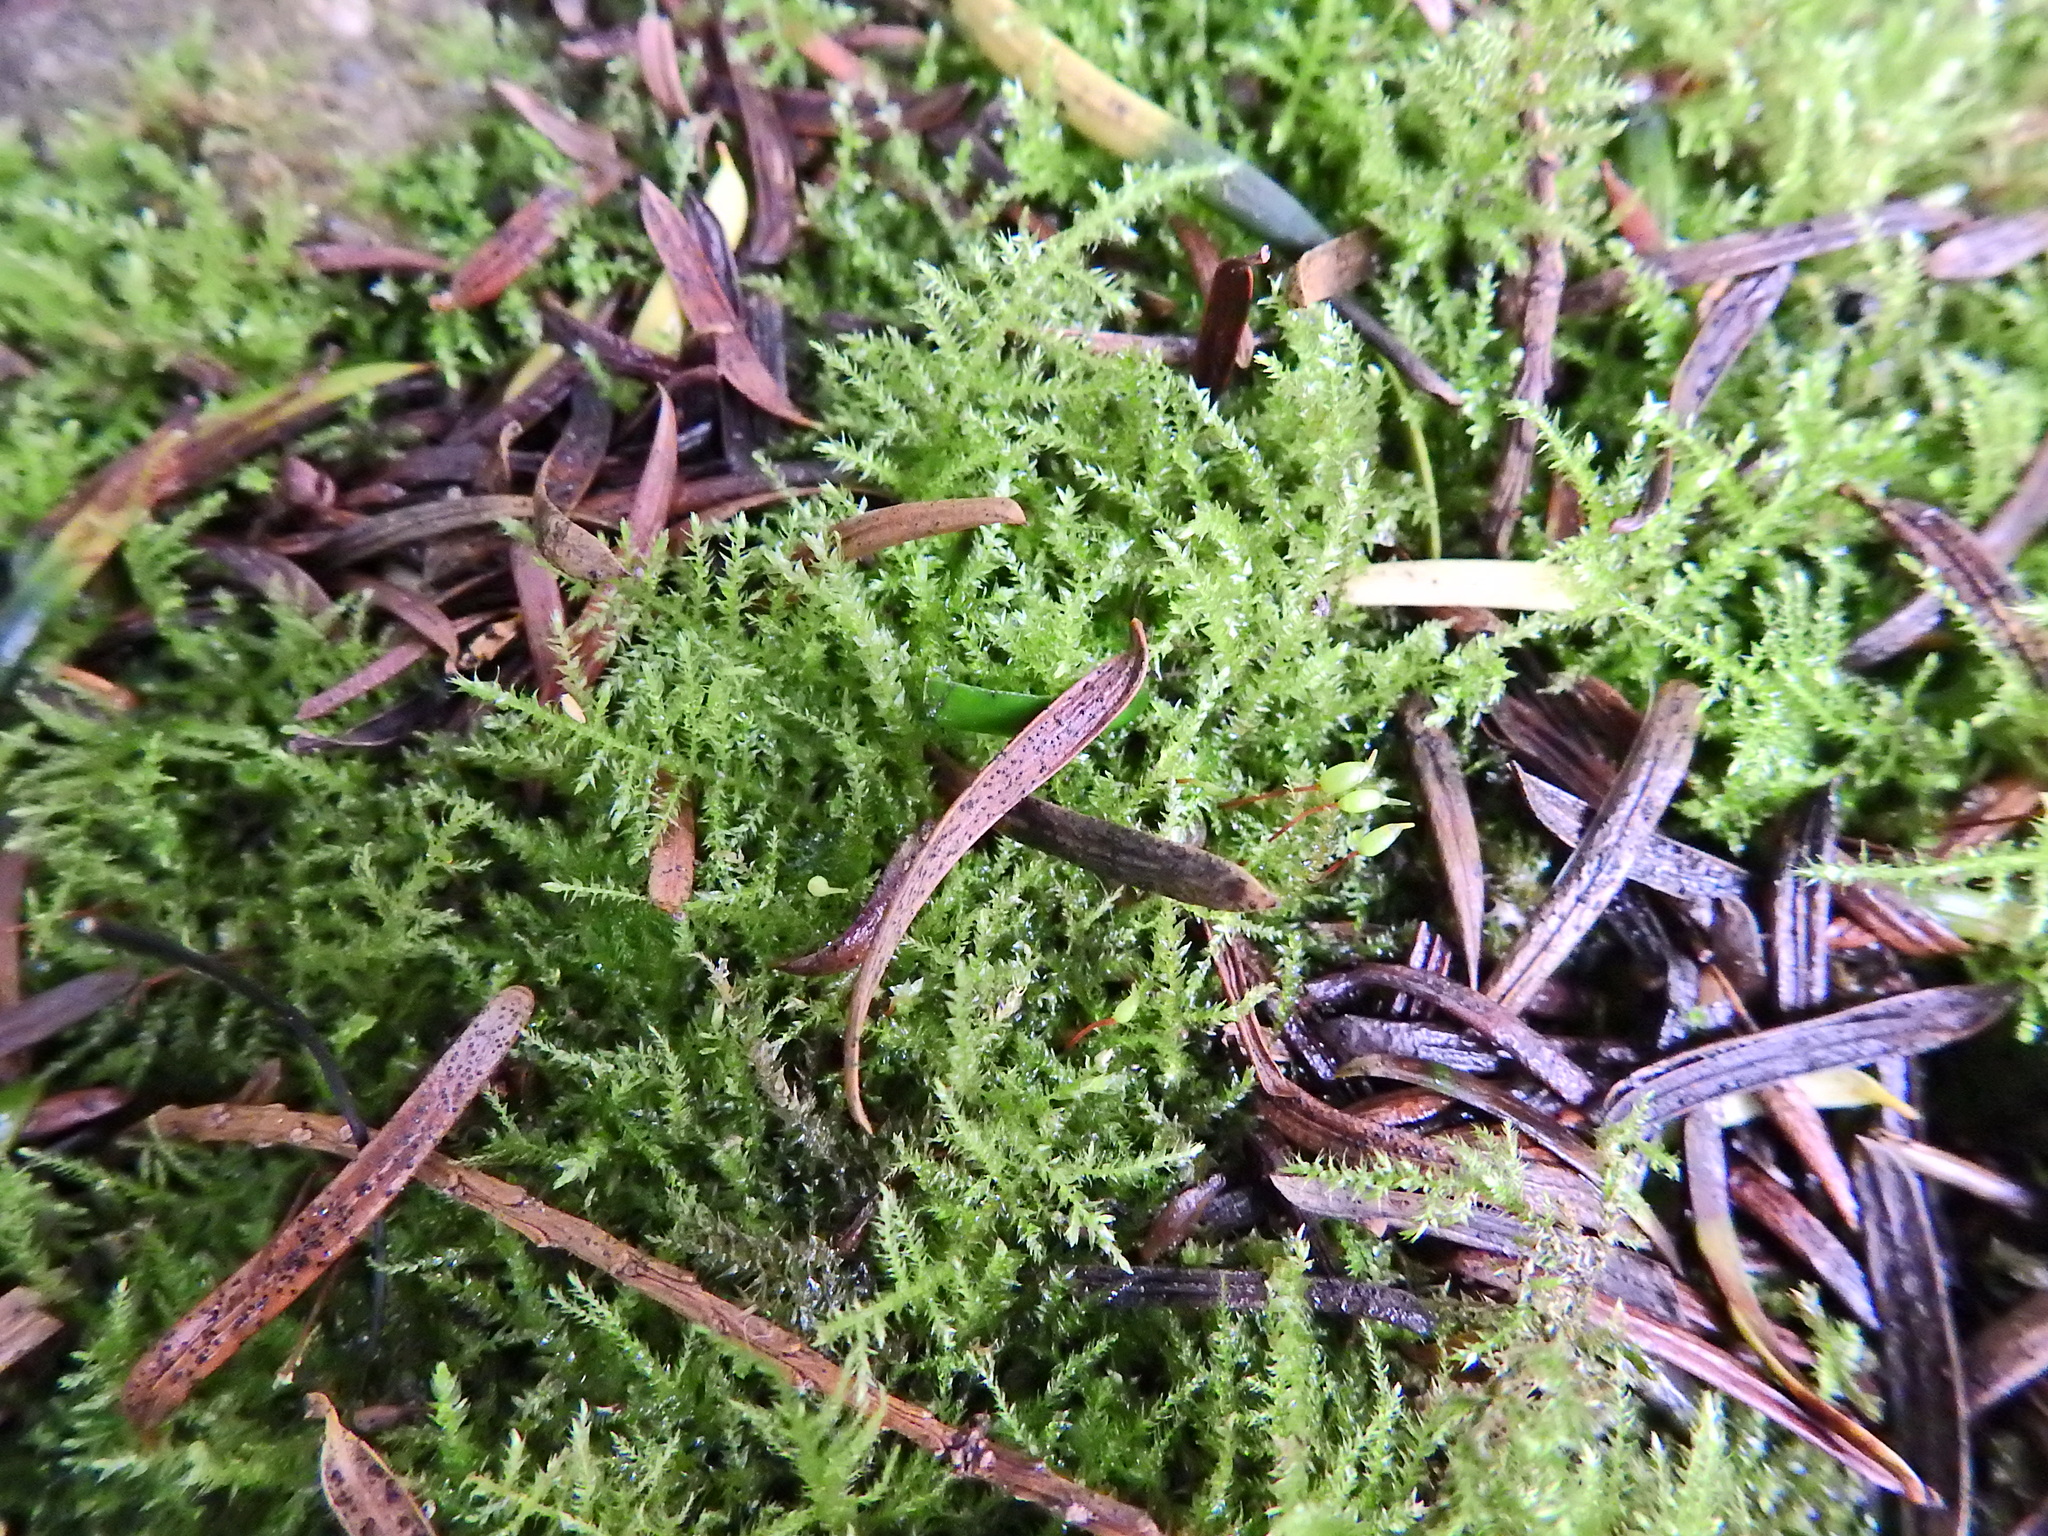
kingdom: Plantae
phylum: Bryophyta
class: Bryopsida
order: Hypnales
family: Brachytheciaceae
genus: Kindbergia
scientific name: Kindbergia praelonga
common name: Slender beaked moss
